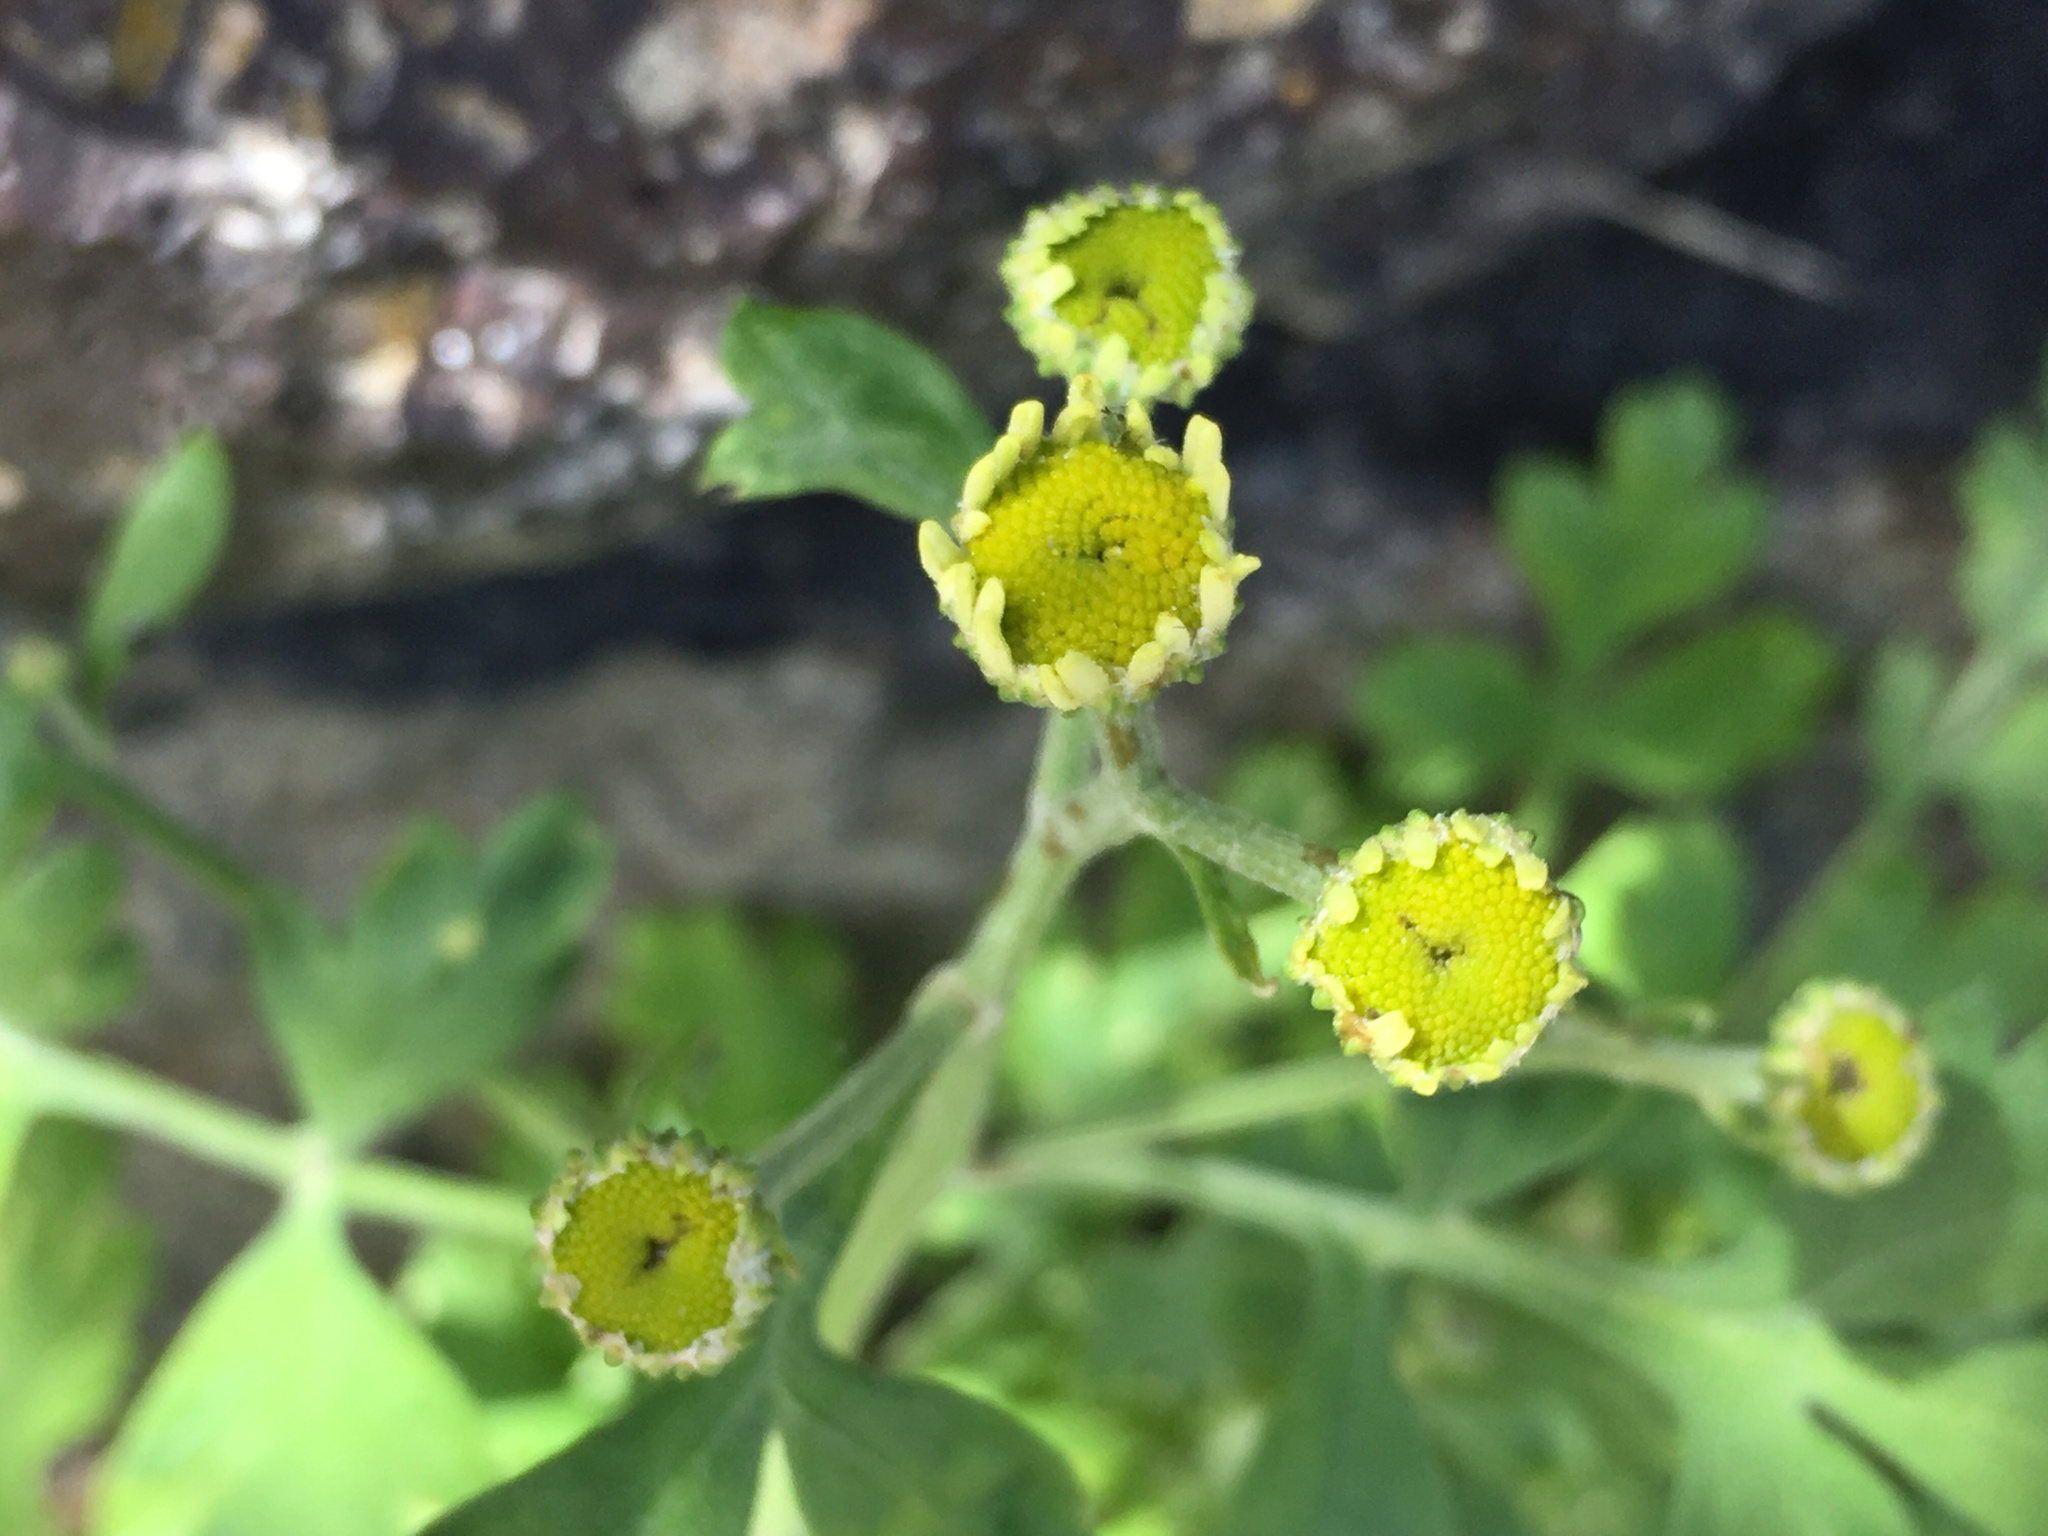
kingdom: Plantae
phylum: Tracheophyta
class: Magnoliopsida
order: Asterales
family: Asteraceae
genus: Tanacetum
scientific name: Tanacetum parthenium
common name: Feverfew
